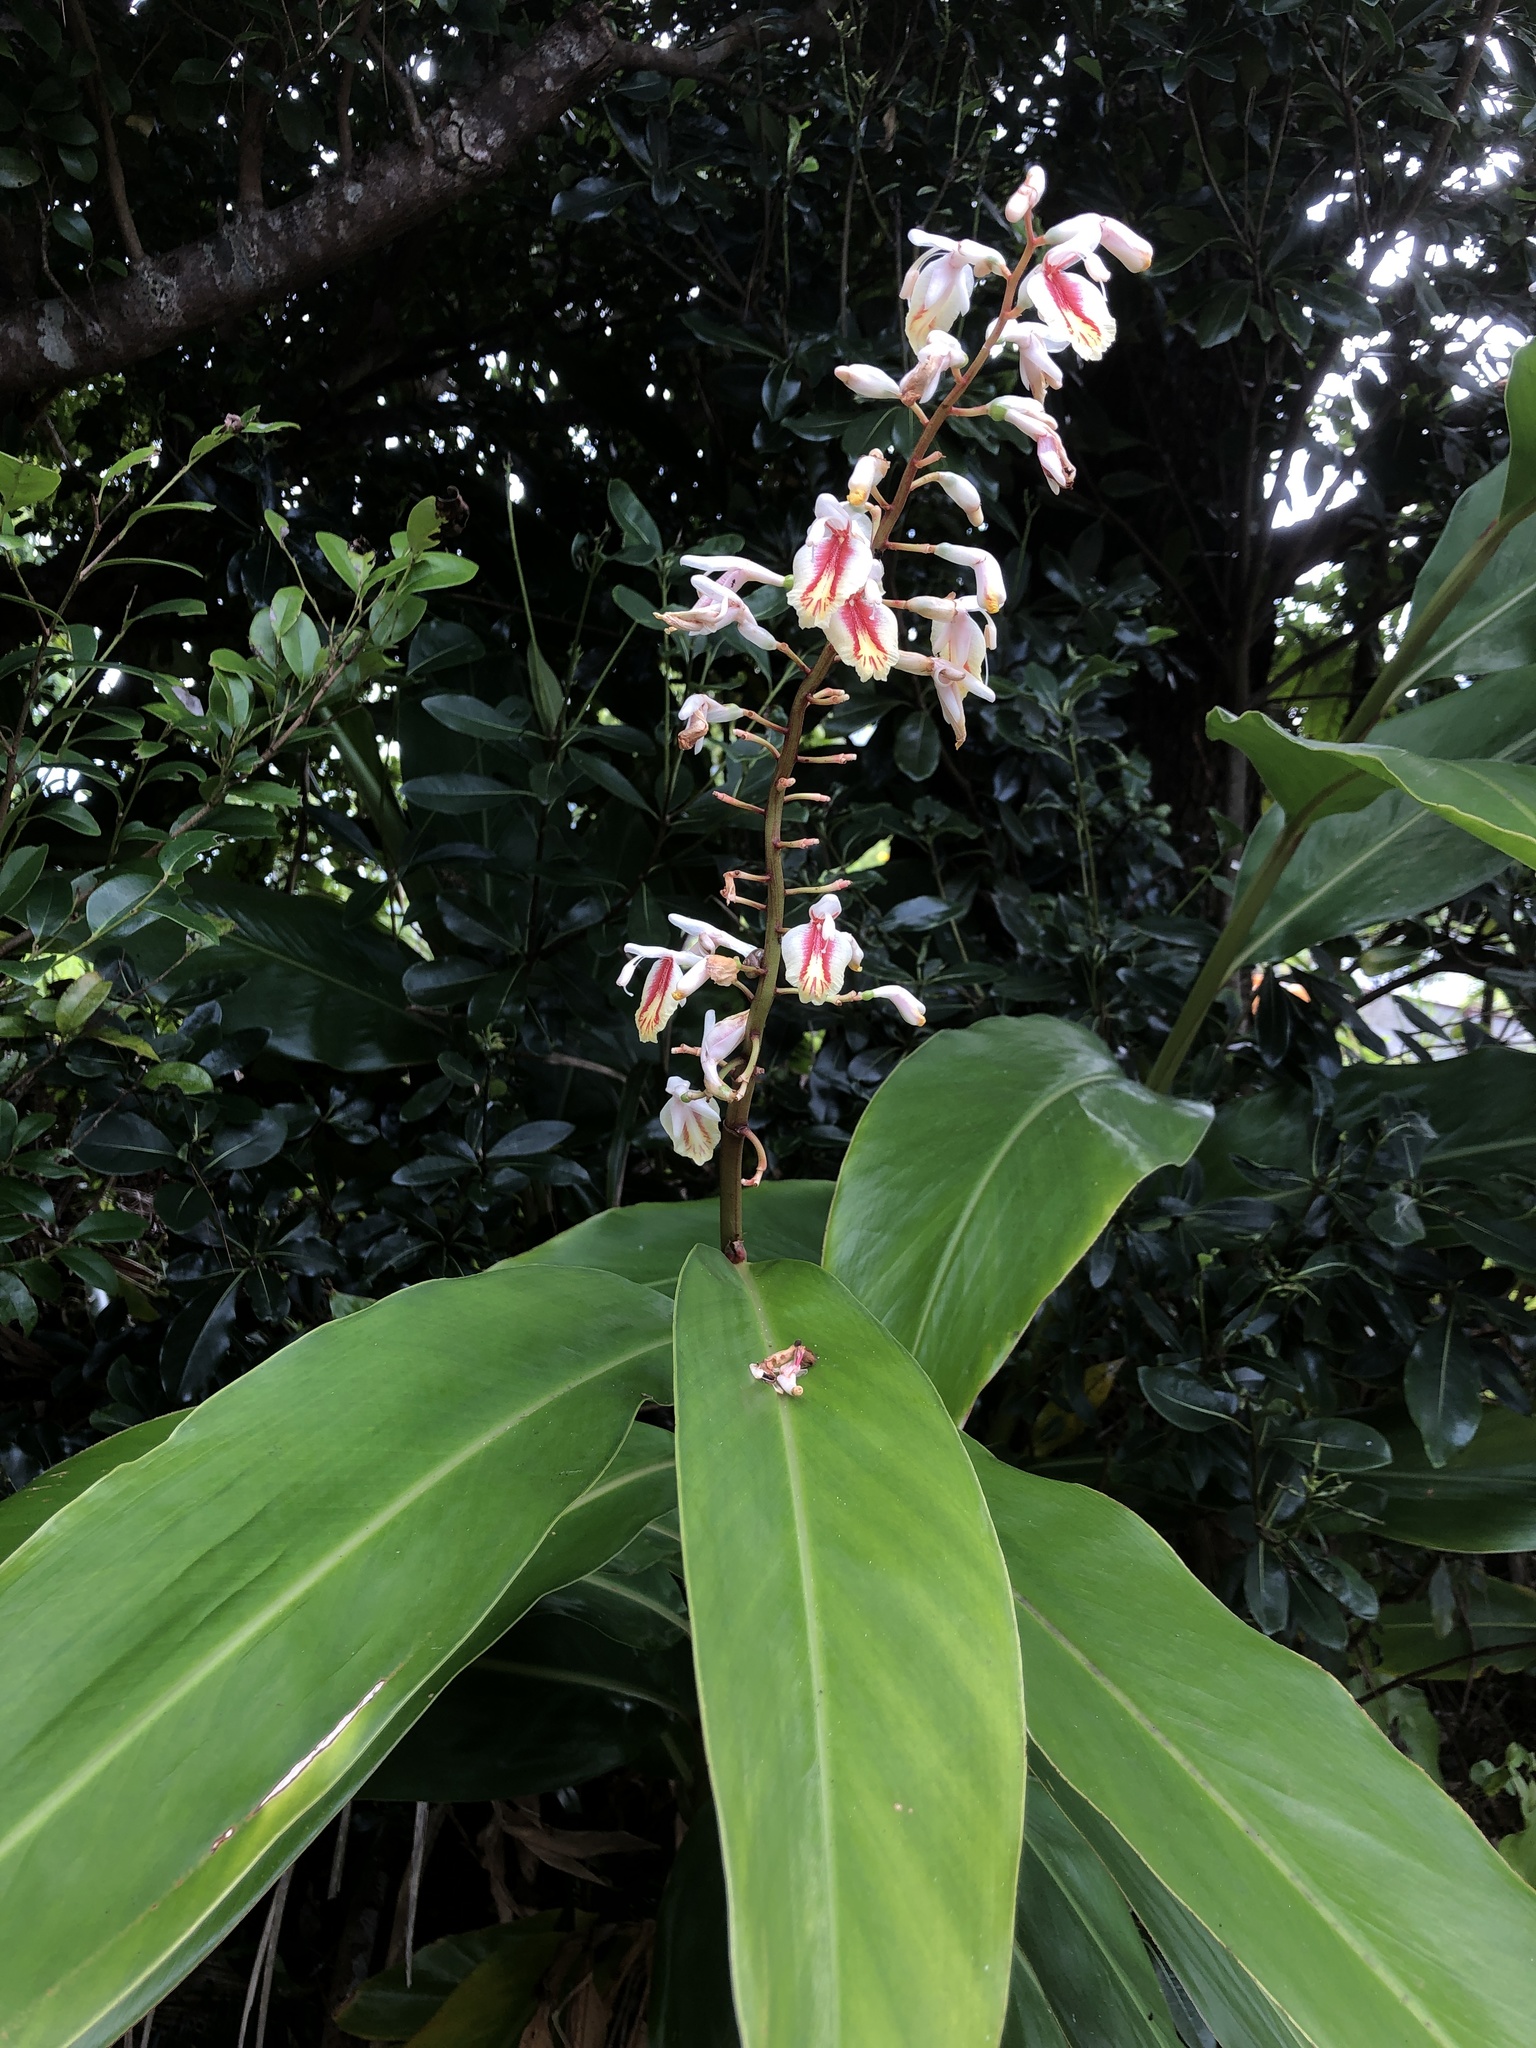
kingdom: Plantae
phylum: Tracheophyta
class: Liliopsida
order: Zingiberales
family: Zingiberaceae
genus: Alpinia
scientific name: Alpinia formosana
